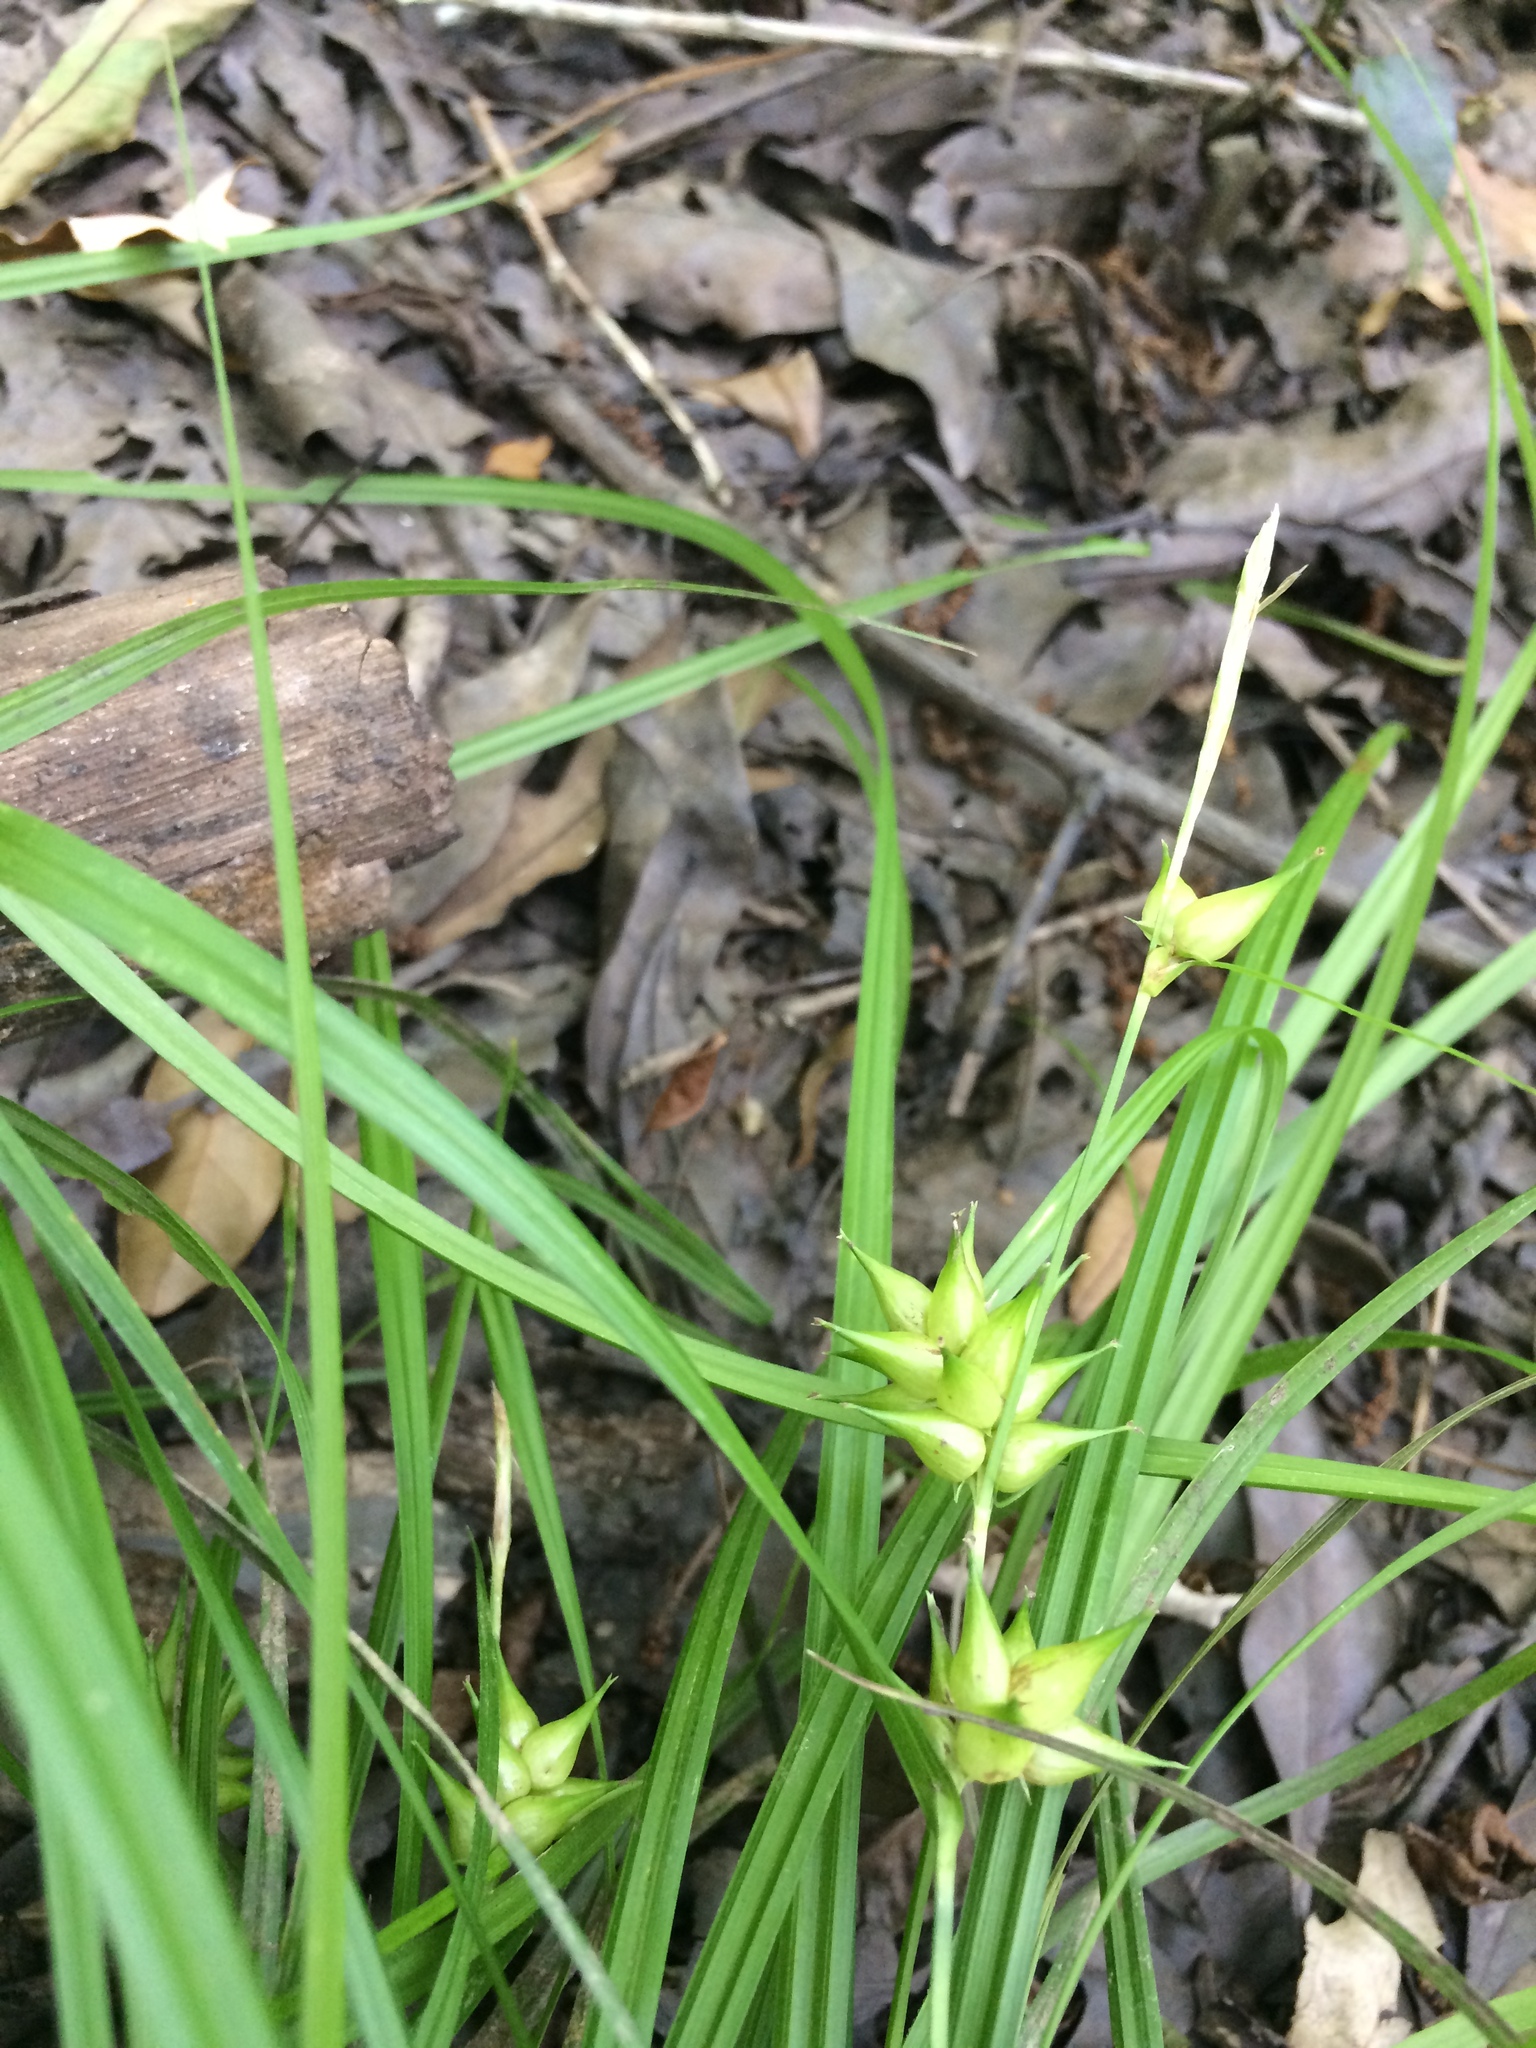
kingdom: Plantae
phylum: Tracheophyta
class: Liliopsida
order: Poales
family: Cyperaceae
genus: Carex
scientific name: Carex louisianica
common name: Louisiana sedge
